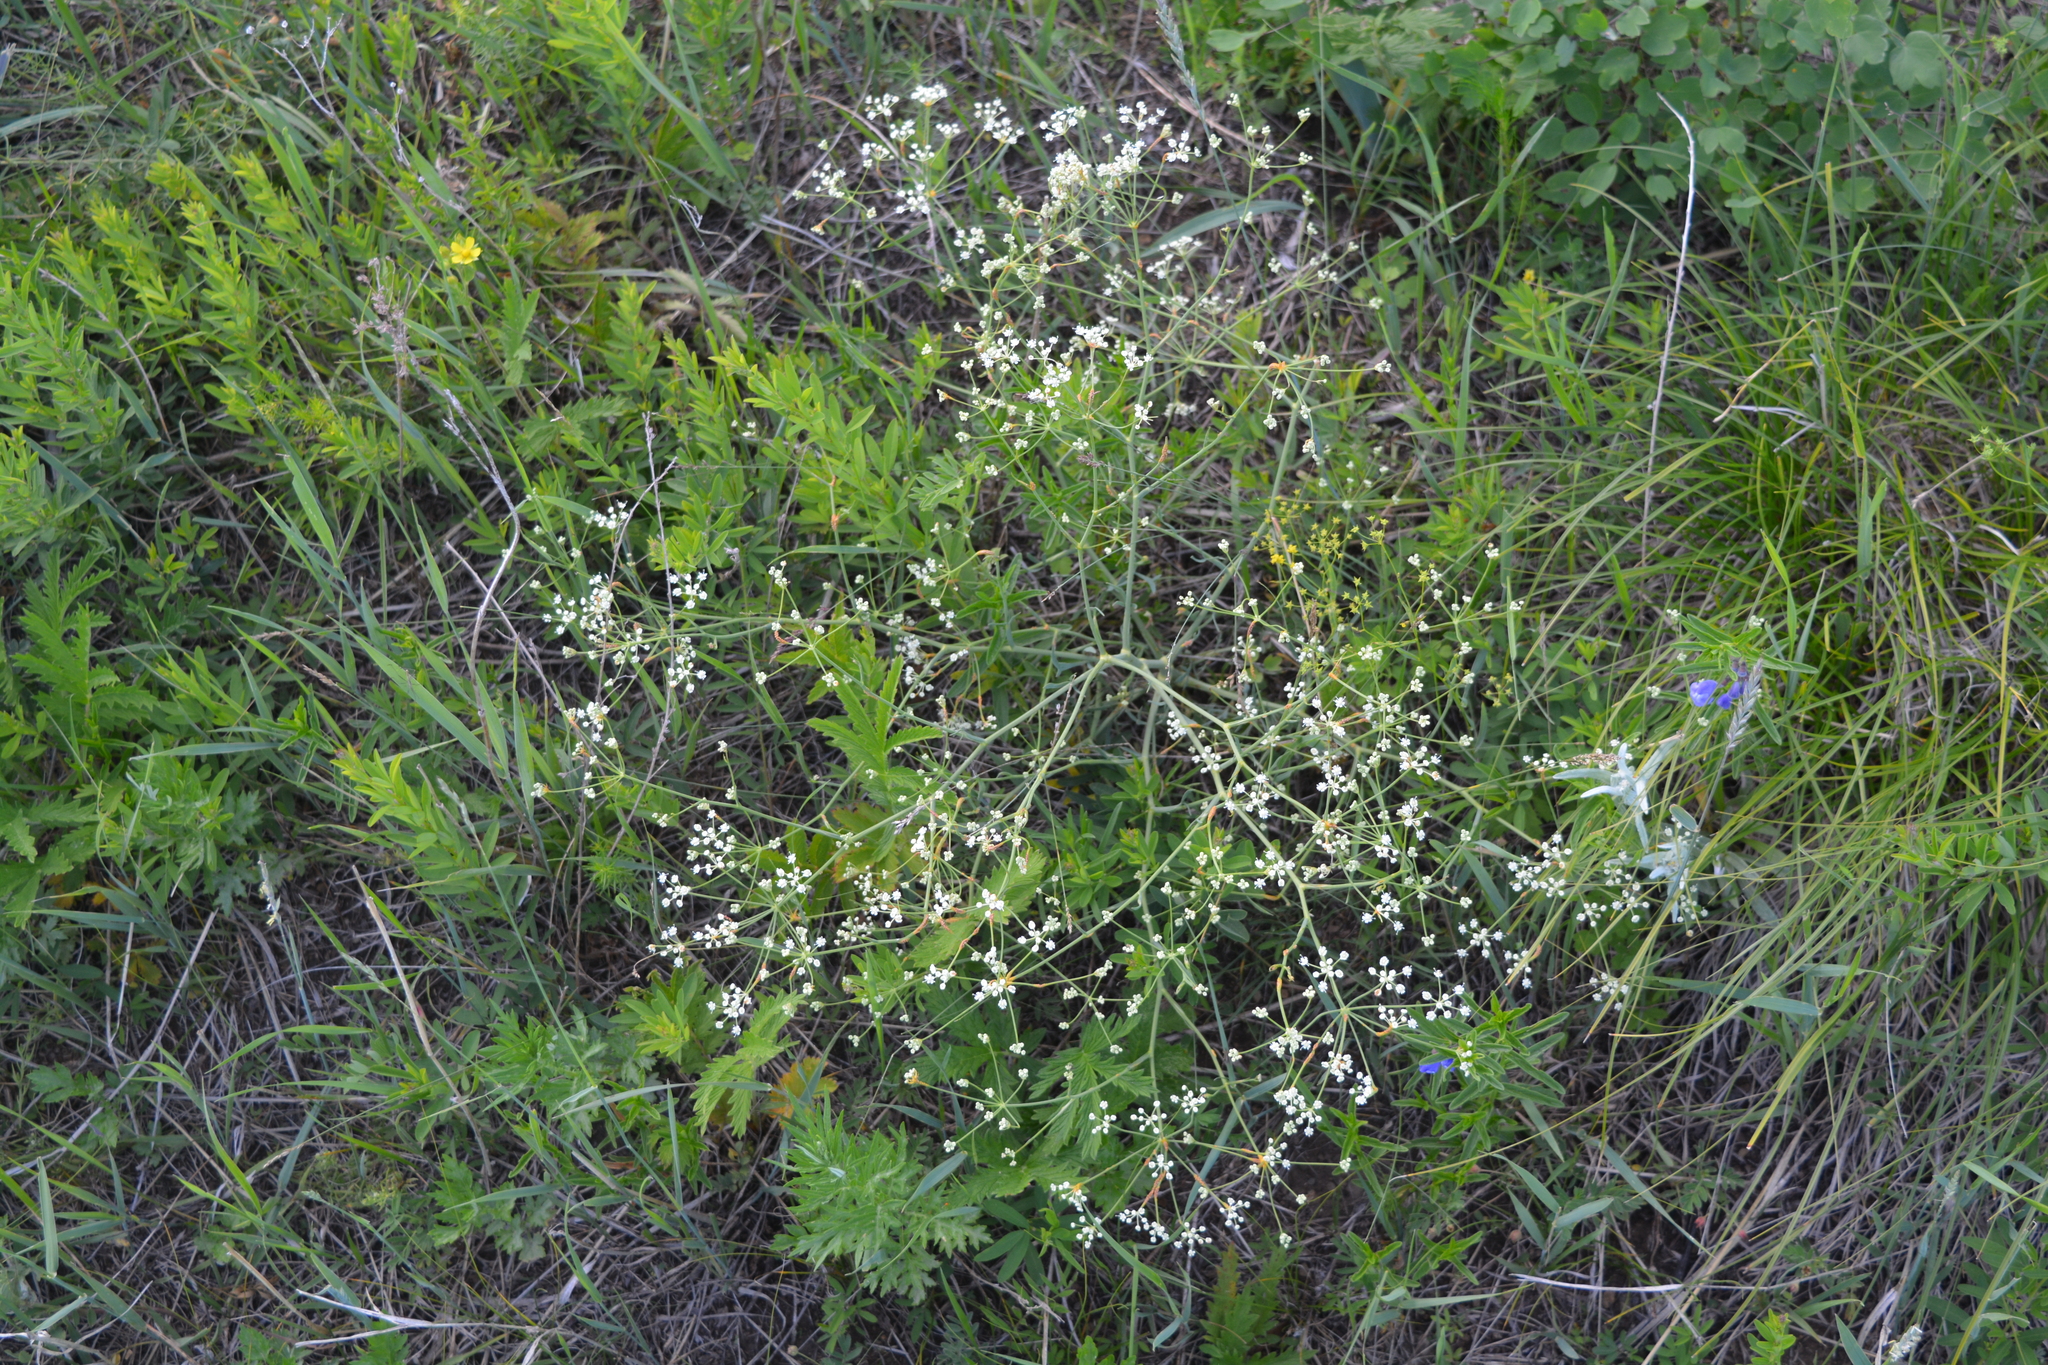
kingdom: Plantae
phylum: Tracheophyta
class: Magnoliopsida
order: Apiales
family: Apiaceae
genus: Saposhnikovia
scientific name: Saposhnikovia divaricata
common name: Siler
